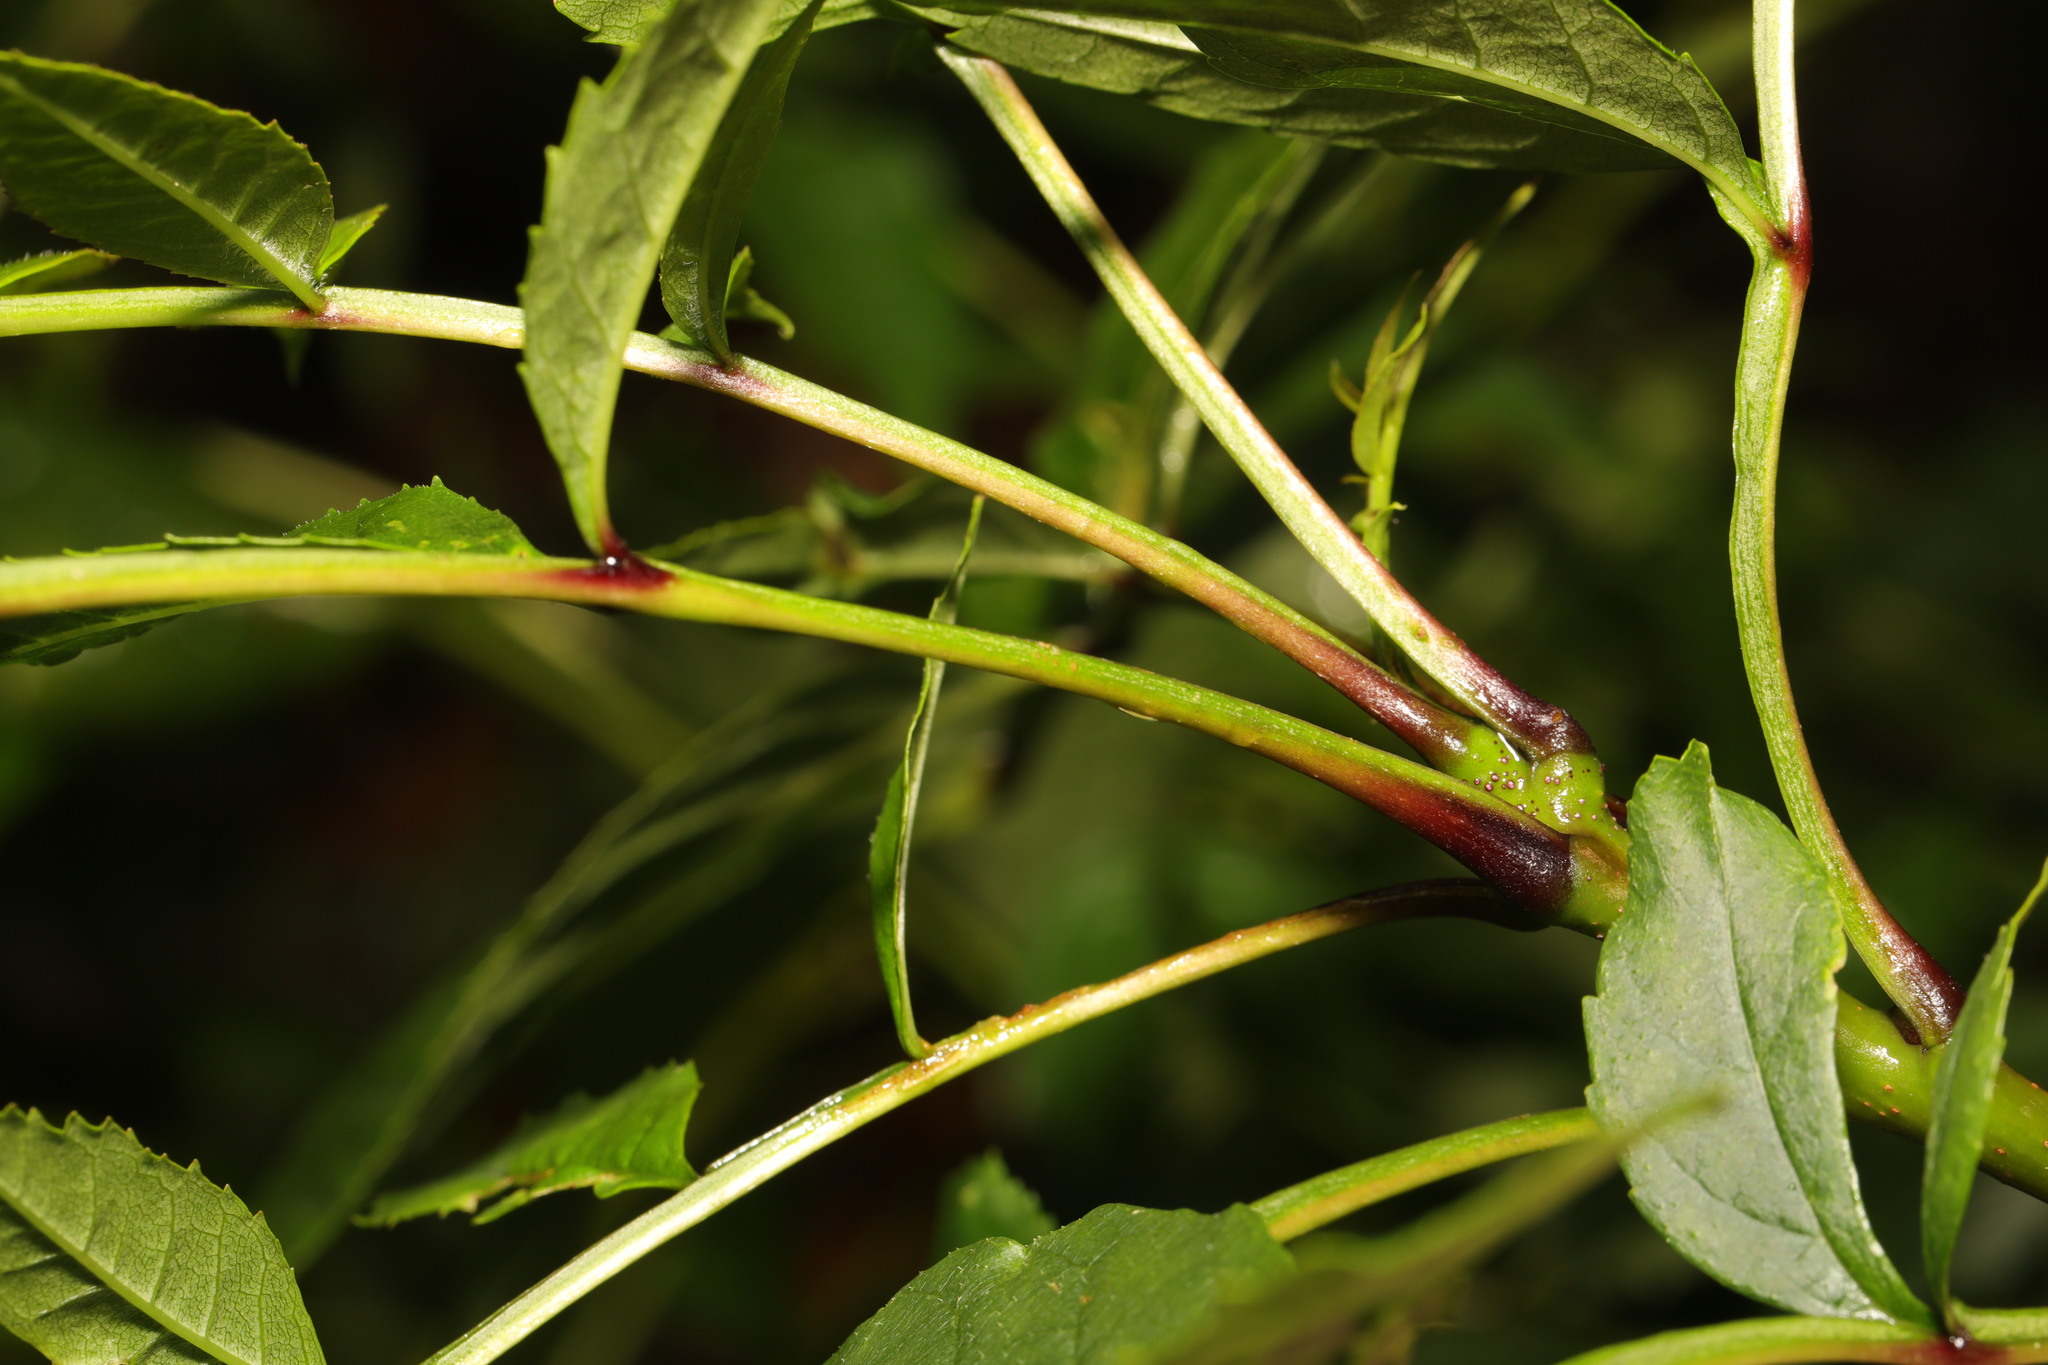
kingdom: Plantae
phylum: Tracheophyta
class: Magnoliopsida
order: Lamiales
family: Oleaceae
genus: Fraxinus
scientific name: Fraxinus excelsior
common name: European ash
